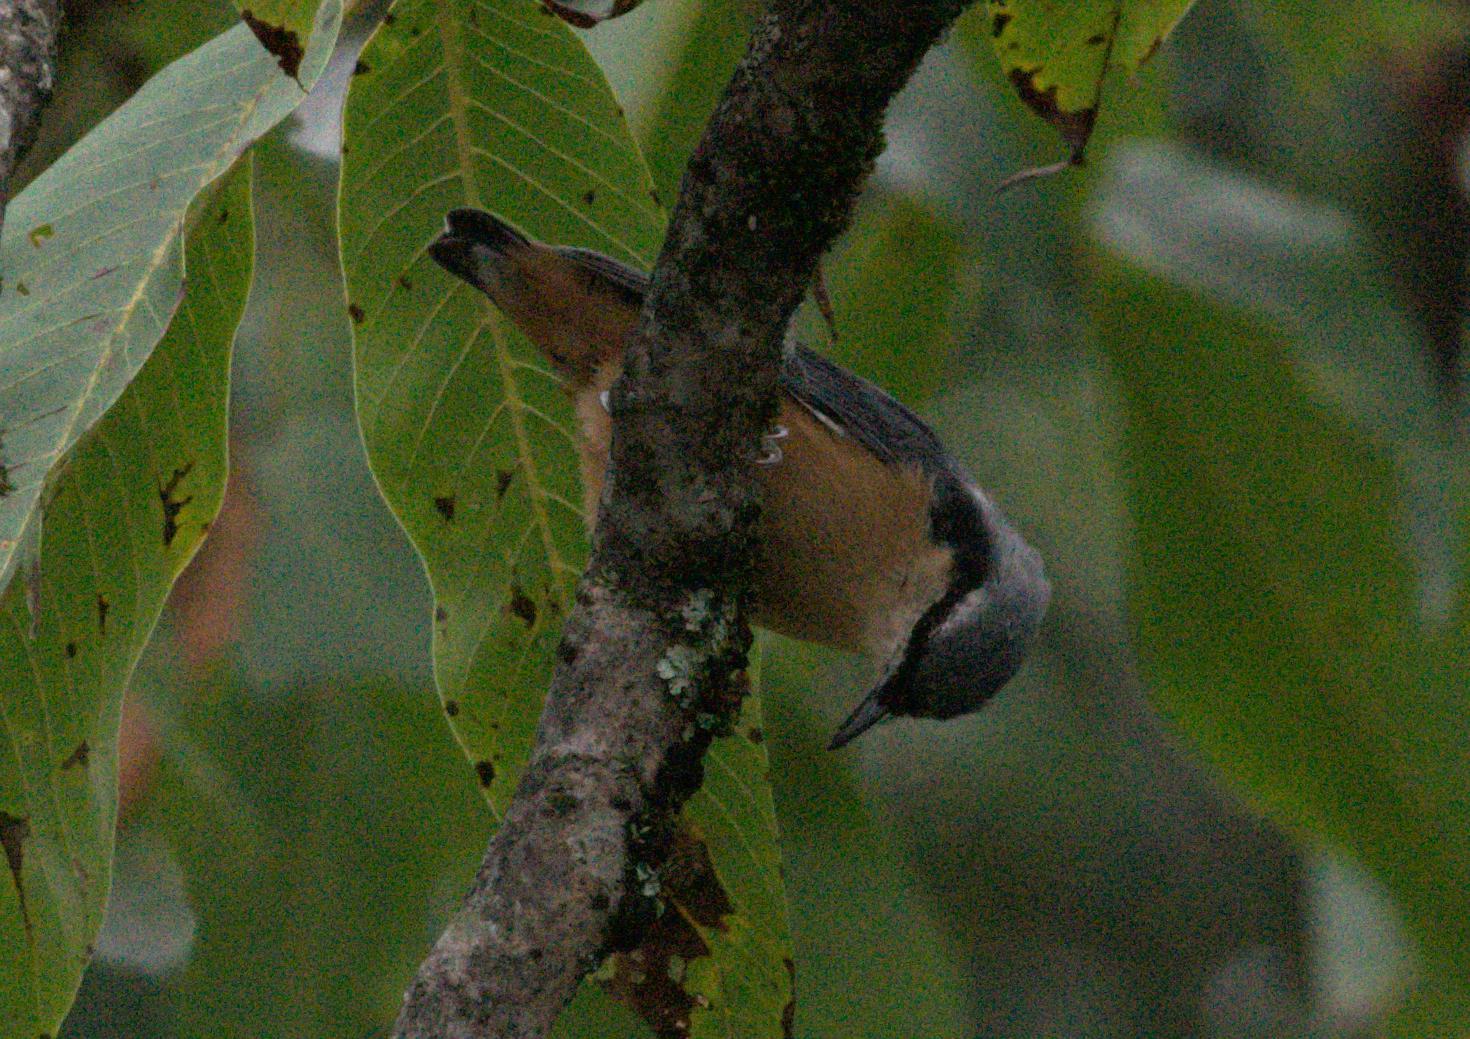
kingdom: Animalia
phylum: Chordata
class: Aves
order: Passeriformes
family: Sittidae
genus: Sitta
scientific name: Sitta himalayensis
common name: White-tailed nuthatch
